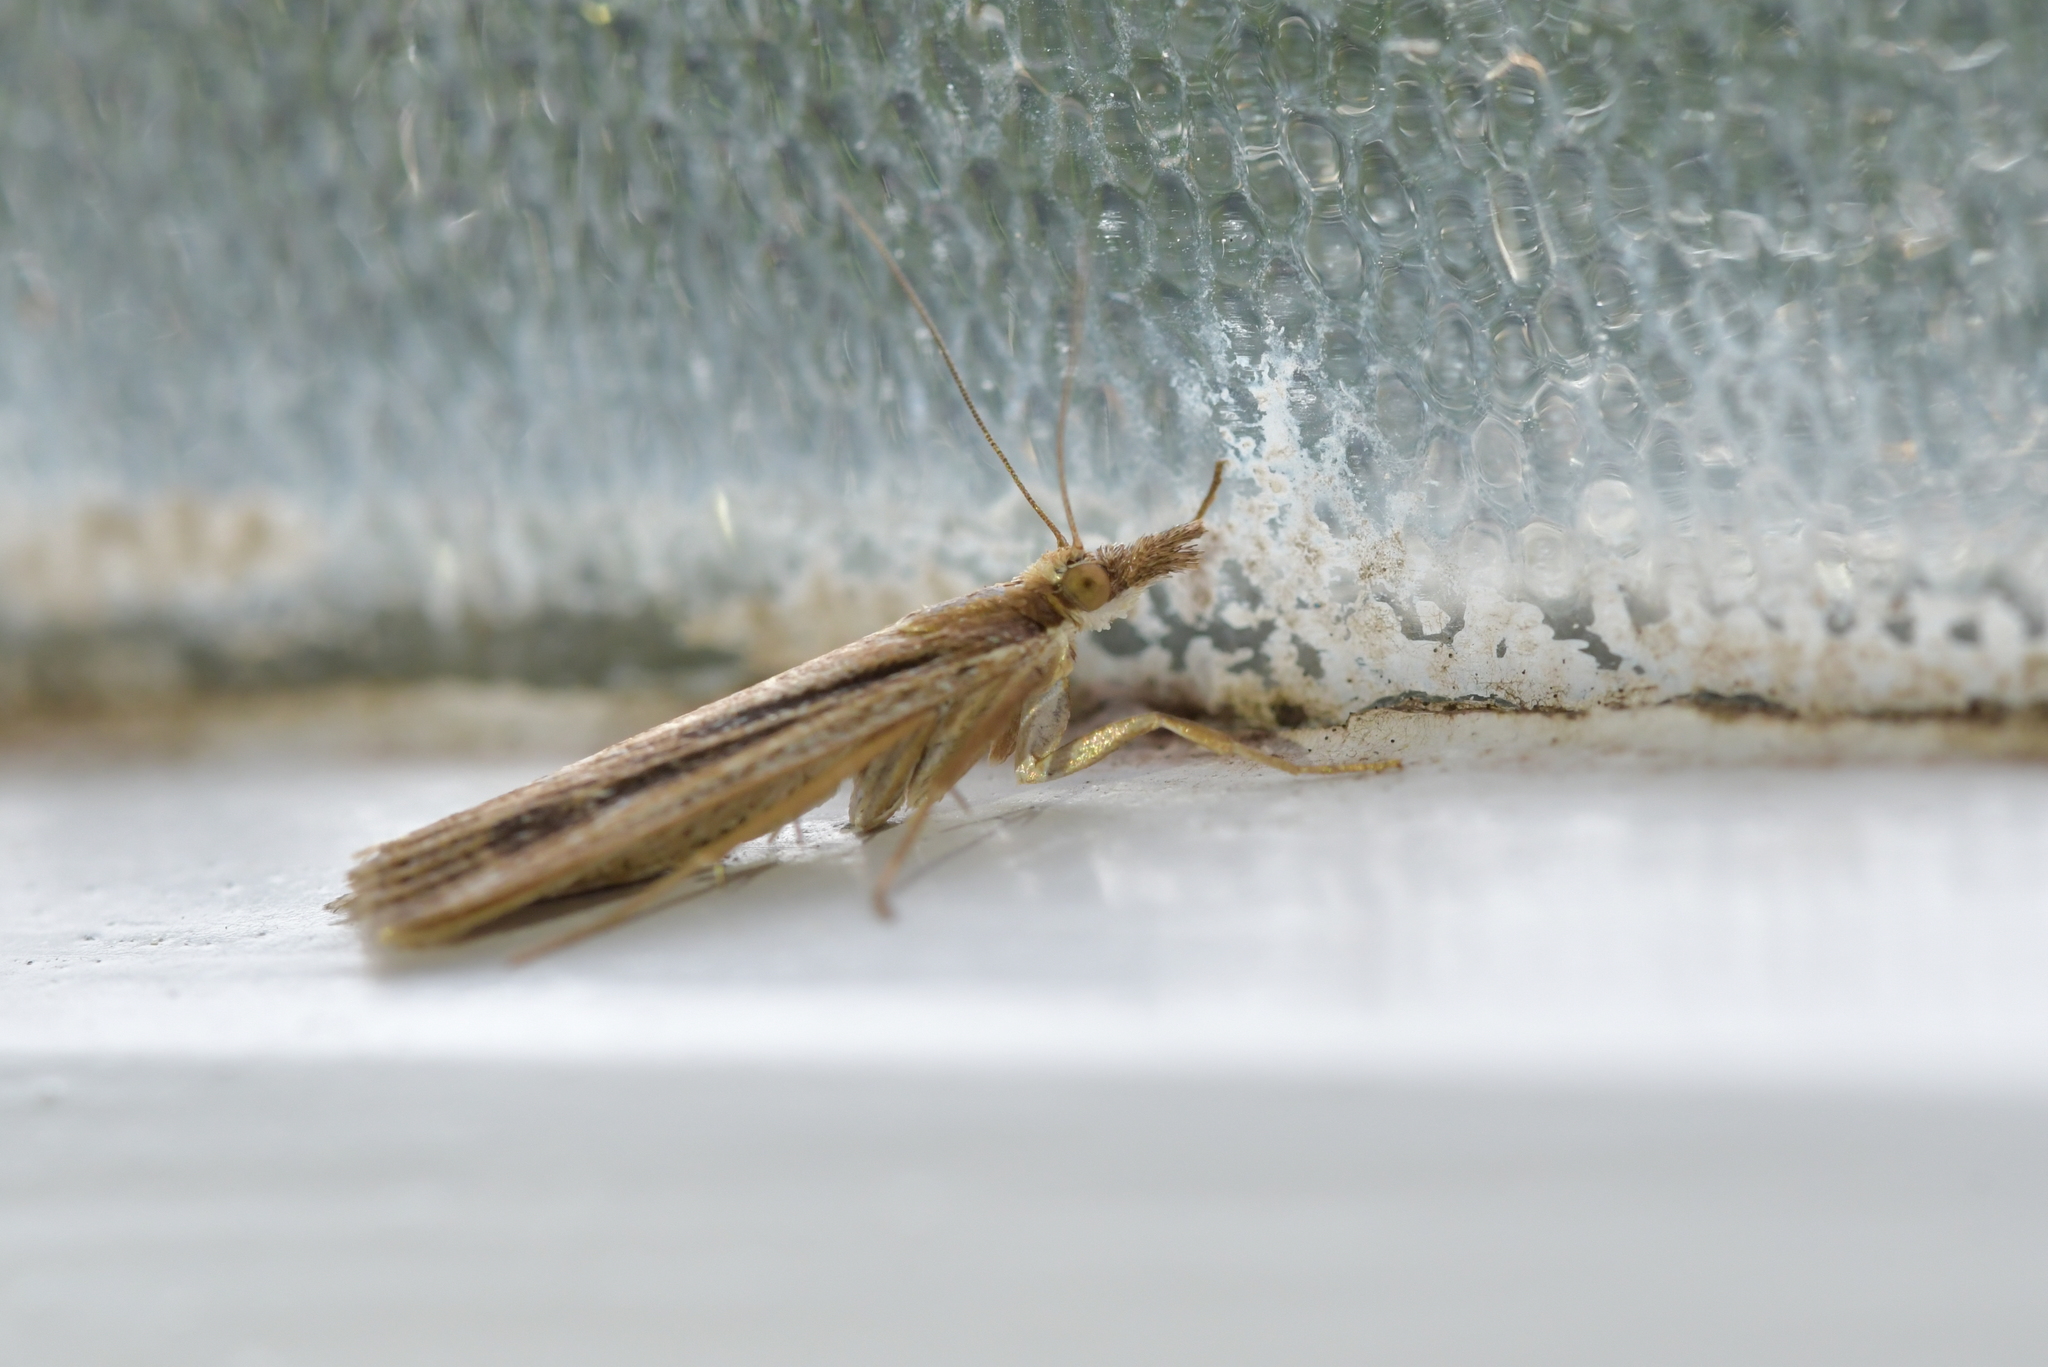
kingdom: Animalia
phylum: Arthropoda
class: Insecta
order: Lepidoptera
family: Crambidae
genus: Eudonia
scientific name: Eudonia sabulosella
